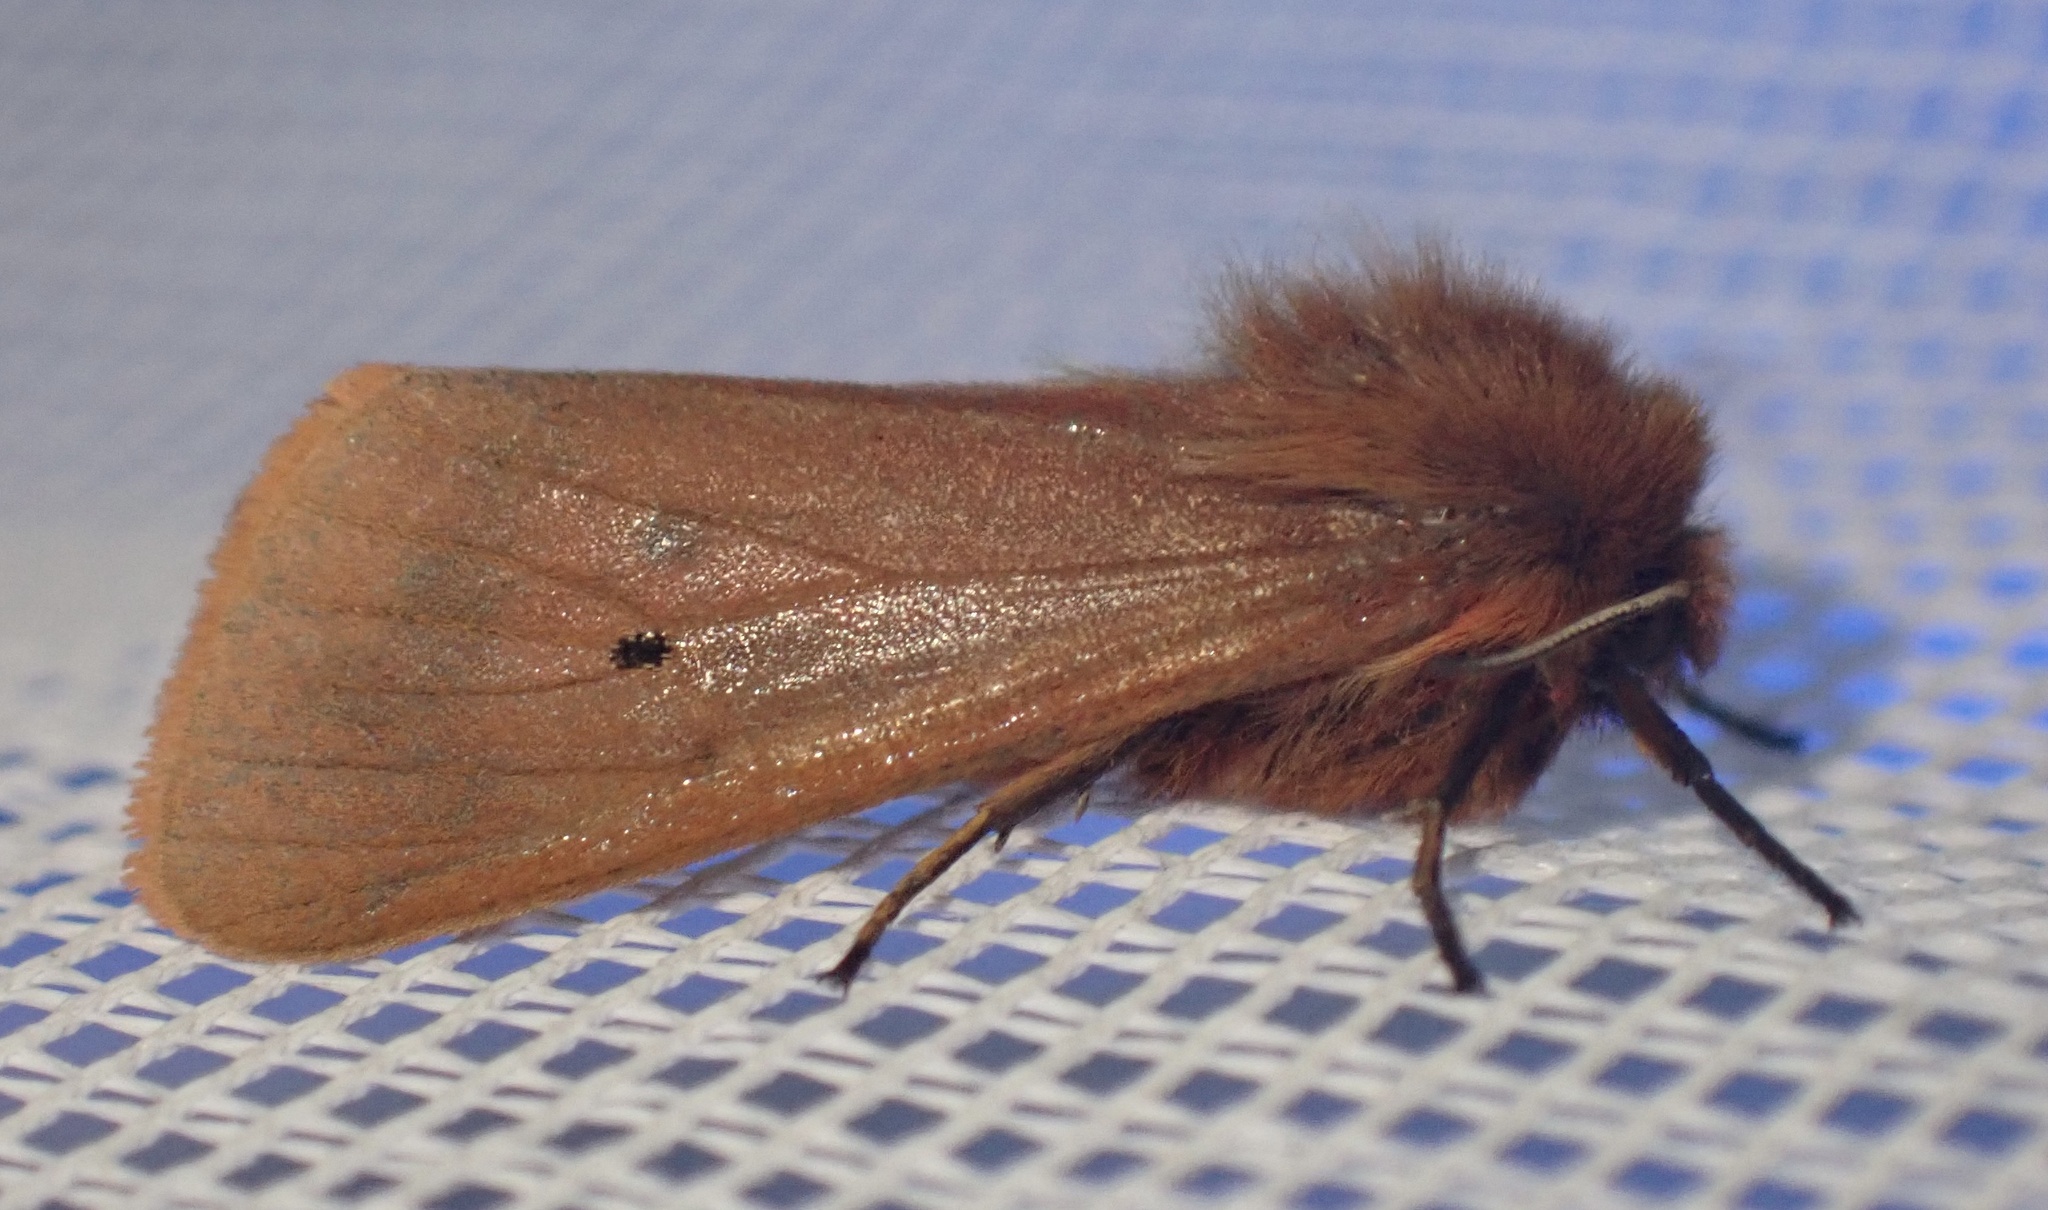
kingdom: Animalia
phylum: Arthropoda
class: Insecta
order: Lepidoptera
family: Erebidae
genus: Phragmatobia
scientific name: Phragmatobia fuliginosa
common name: Ruby tiger
